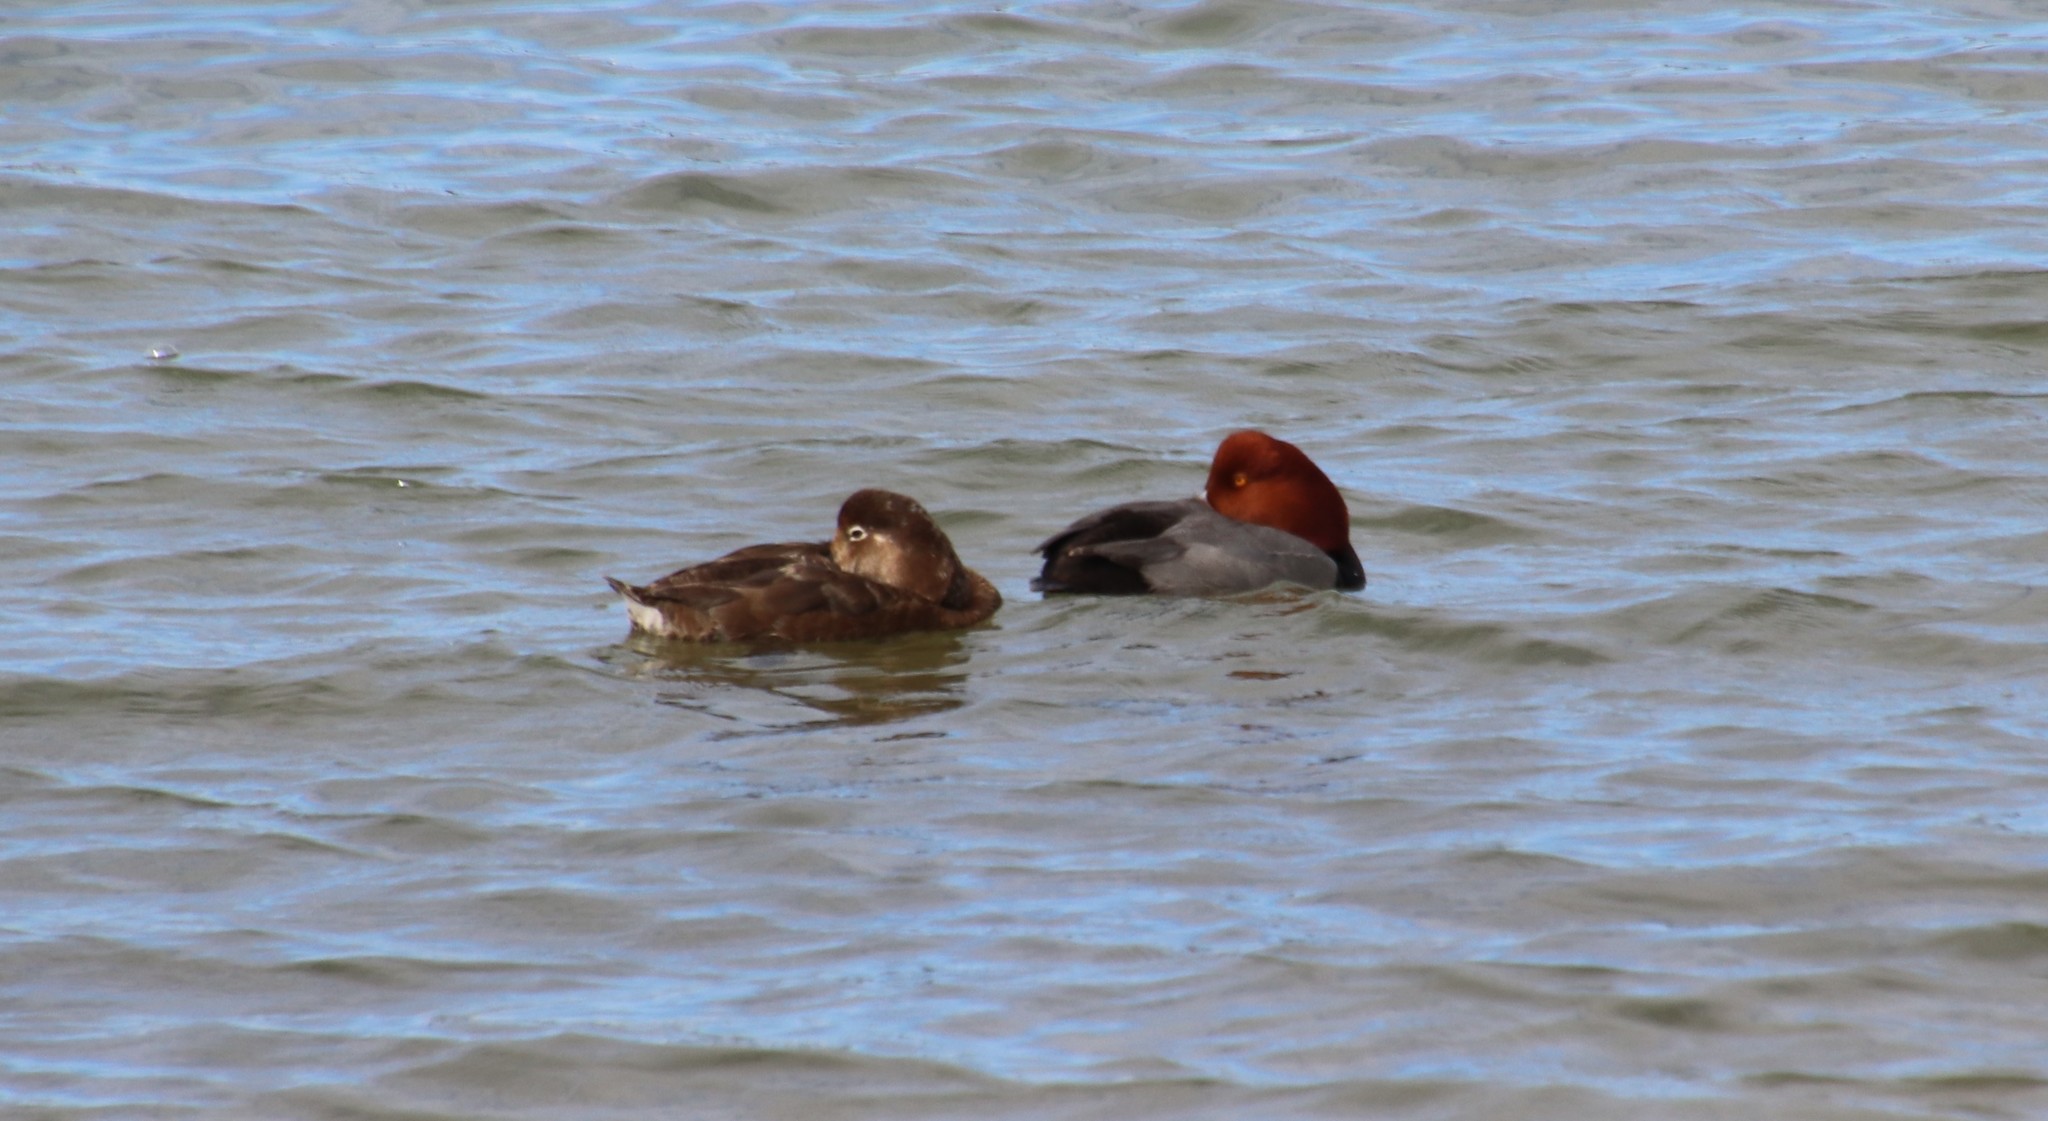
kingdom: Animalia
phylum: Chordata
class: Aves
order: Anseriformes
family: Anatidae
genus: Aythya
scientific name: Aythya americana
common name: Redhead
